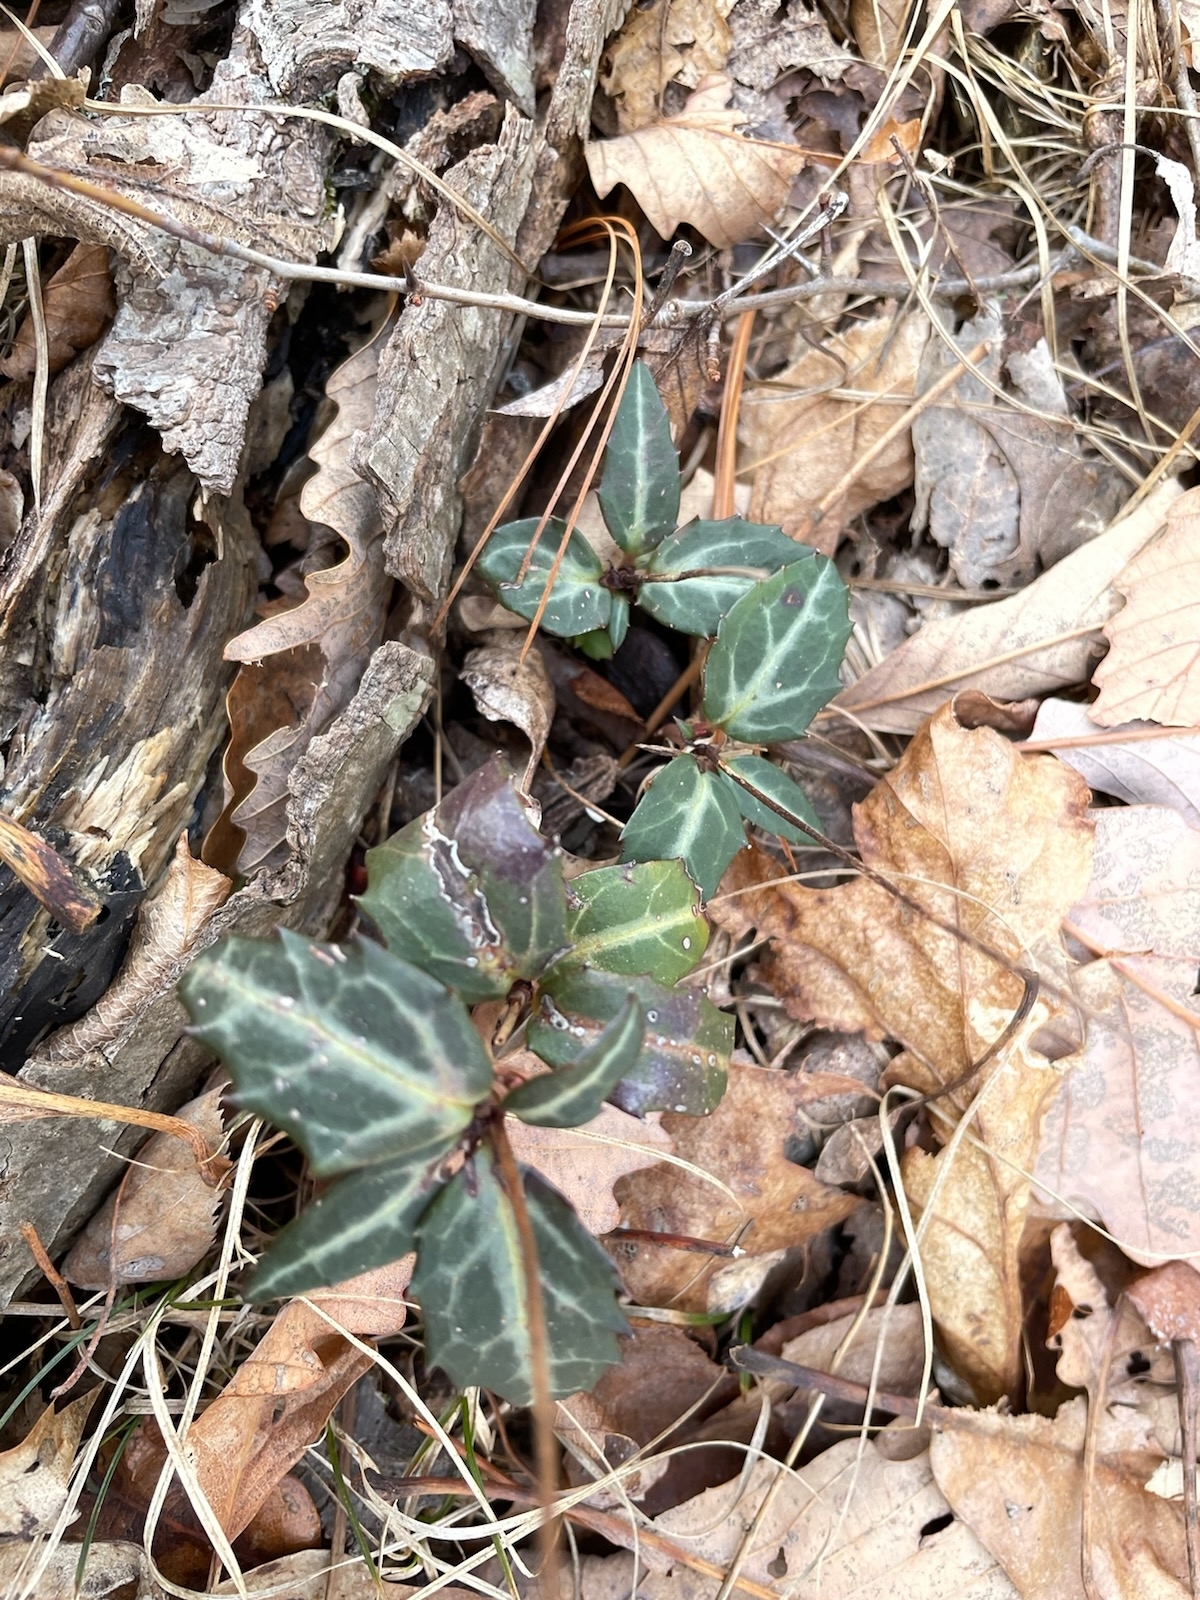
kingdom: Plantae
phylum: Tracheophyta
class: Magnoliopsida
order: Ericales
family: Ericaceae
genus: Chimaphila
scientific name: Chimaphila maculata
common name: Spotted pipsissewa
